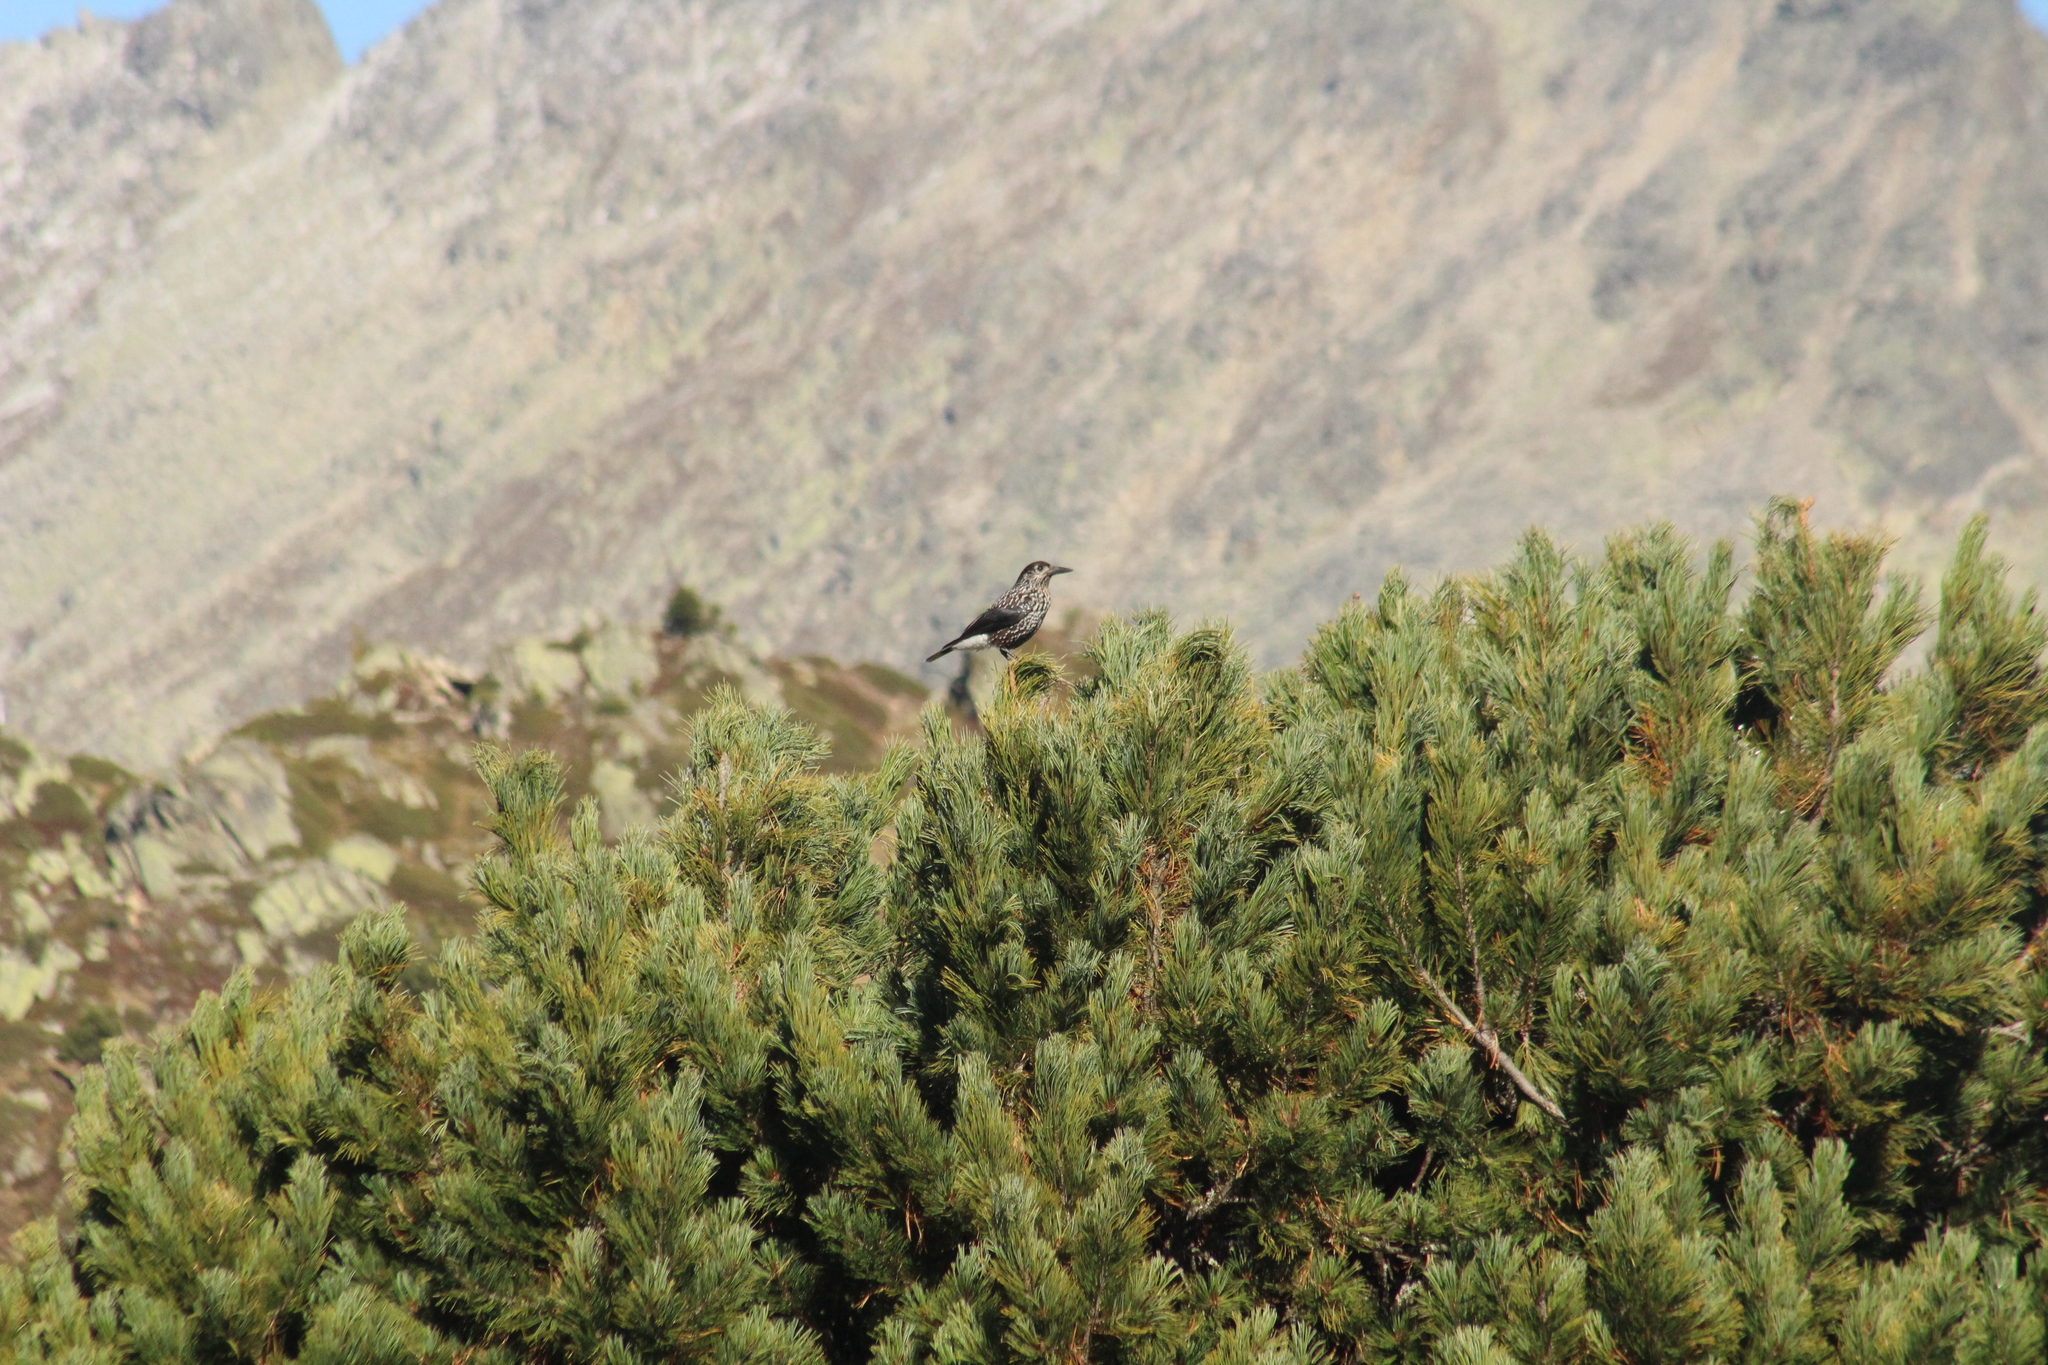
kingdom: Animalia
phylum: Chordata
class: Aves
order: Passeriformes
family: Corvidae
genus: Nucifraga
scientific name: Nucifraga caryocatactes
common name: Spotted nutcracker
